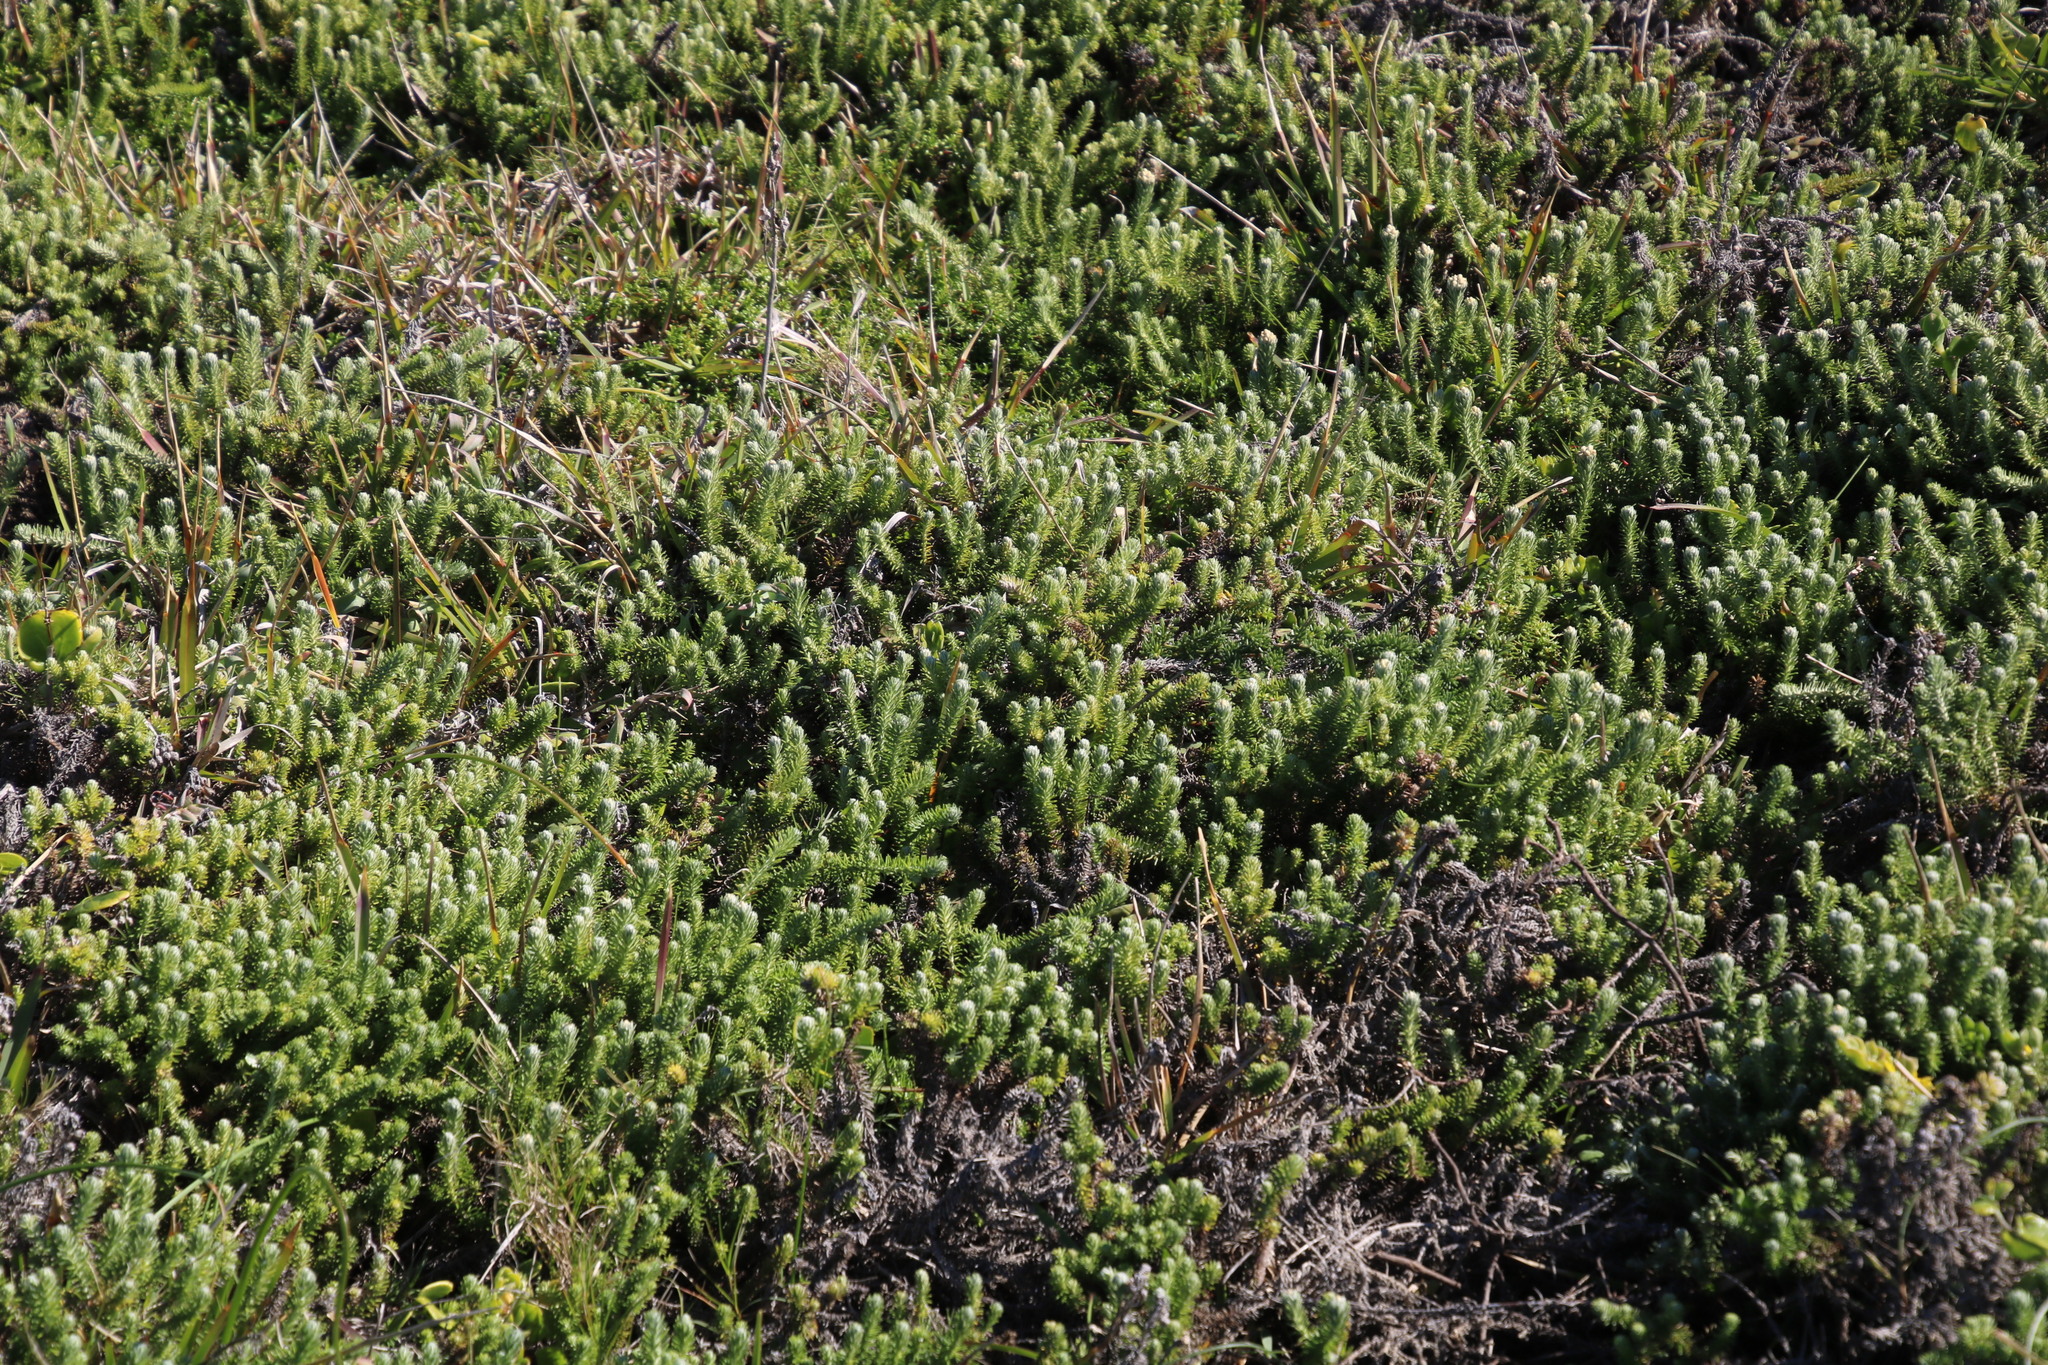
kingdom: Plantae
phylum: Tracheophyta
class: Magnoliopsida
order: Asterales
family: Asteraceae
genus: Helichrysum
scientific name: Helichrysum teretifolium
